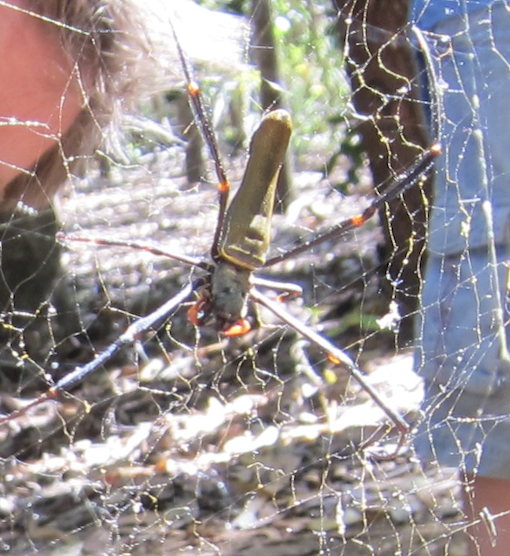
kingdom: Animalia
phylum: Arthropoda
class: Arachnida
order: Araneae
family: Araneidae
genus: Nephila
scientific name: Nephila pilipes
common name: Giant golden orb weaver
